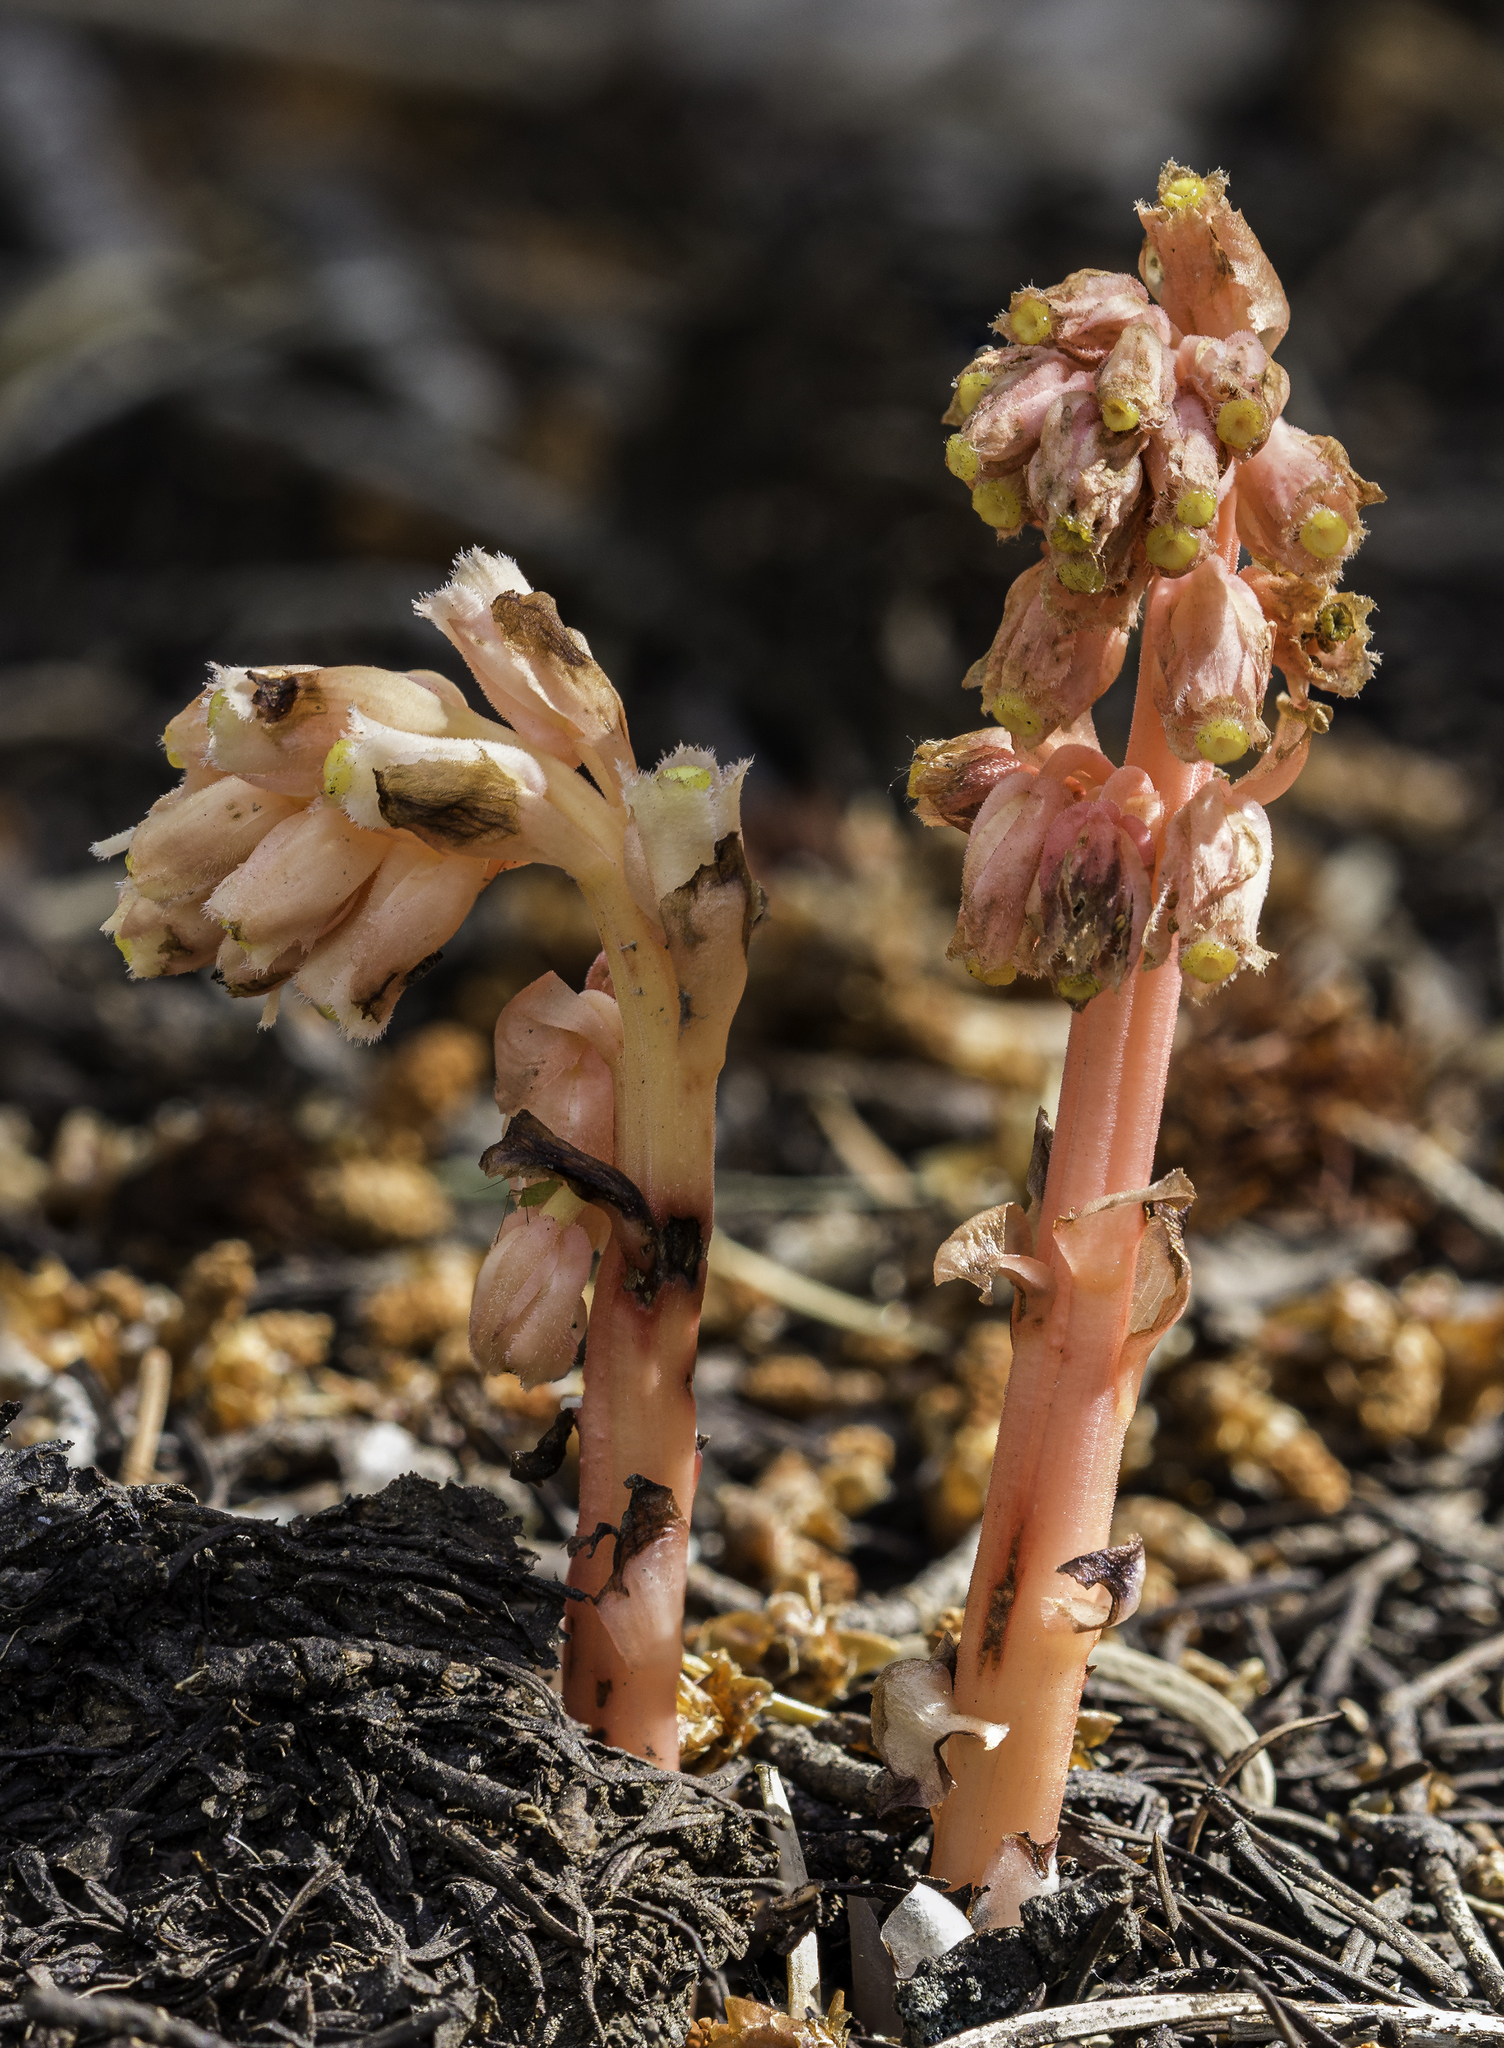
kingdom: Plantae
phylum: Tracheophyta
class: Magnoliopsida
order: Ericales
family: Ericaceae
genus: Hypopitys
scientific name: Hypopitys monotropa
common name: Yellow bird's-nest
